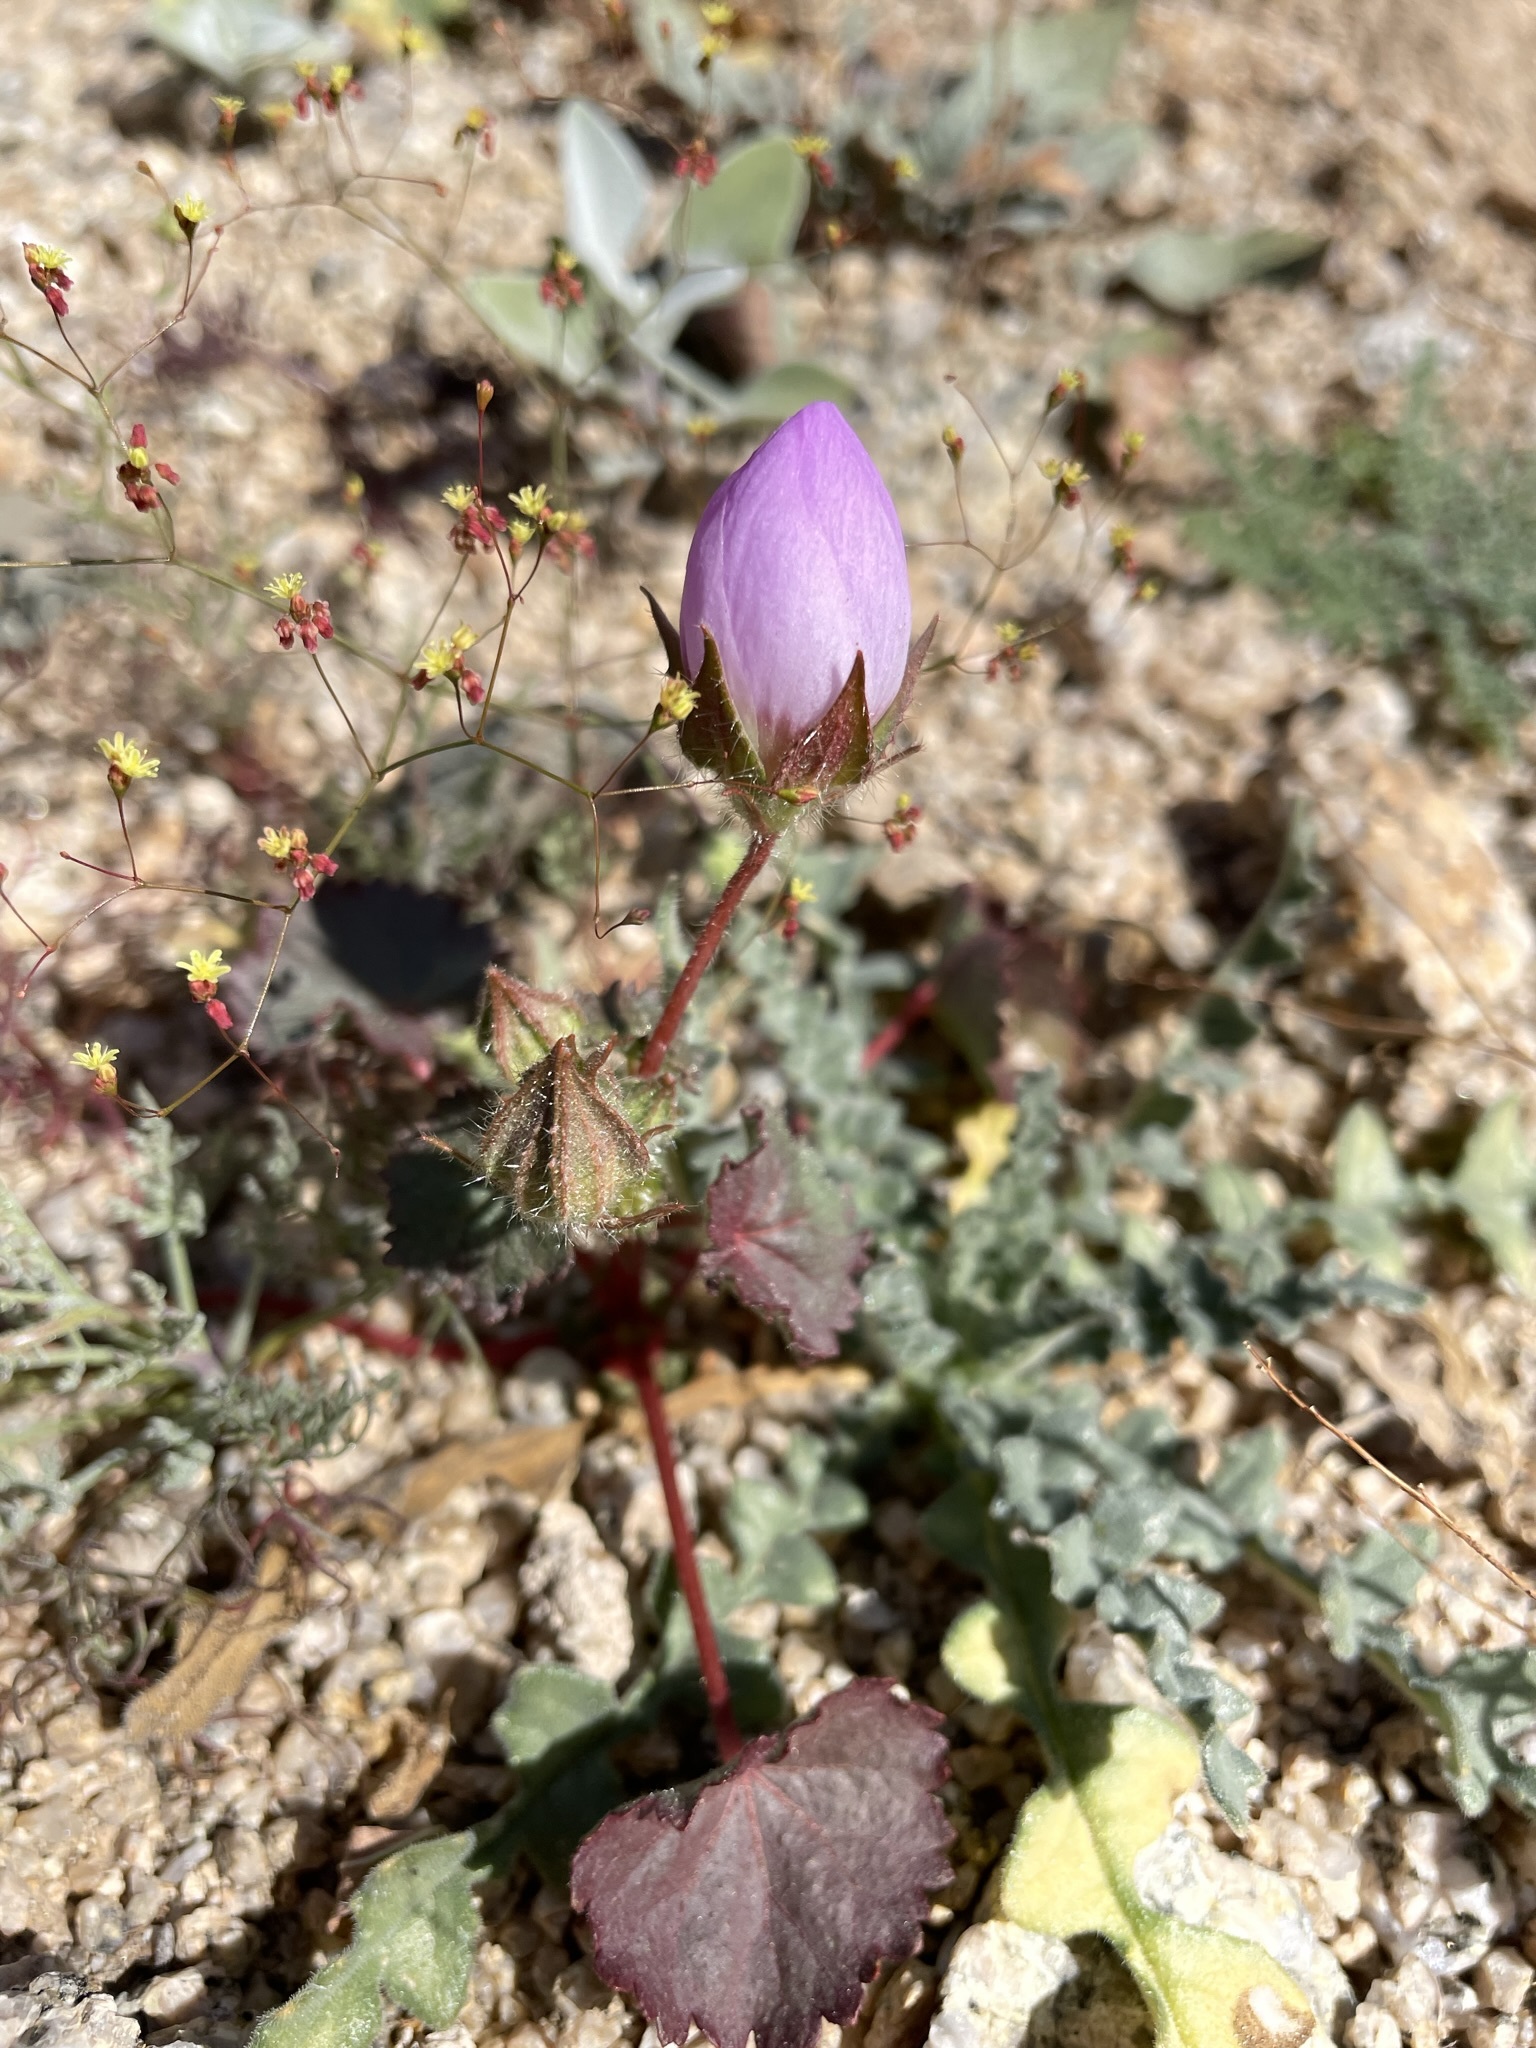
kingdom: Plantae
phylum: Tracheophyta
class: Magnoliopsida
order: Malvales
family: Malvaceae
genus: Eremalche
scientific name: Eremalche rotundifolia
